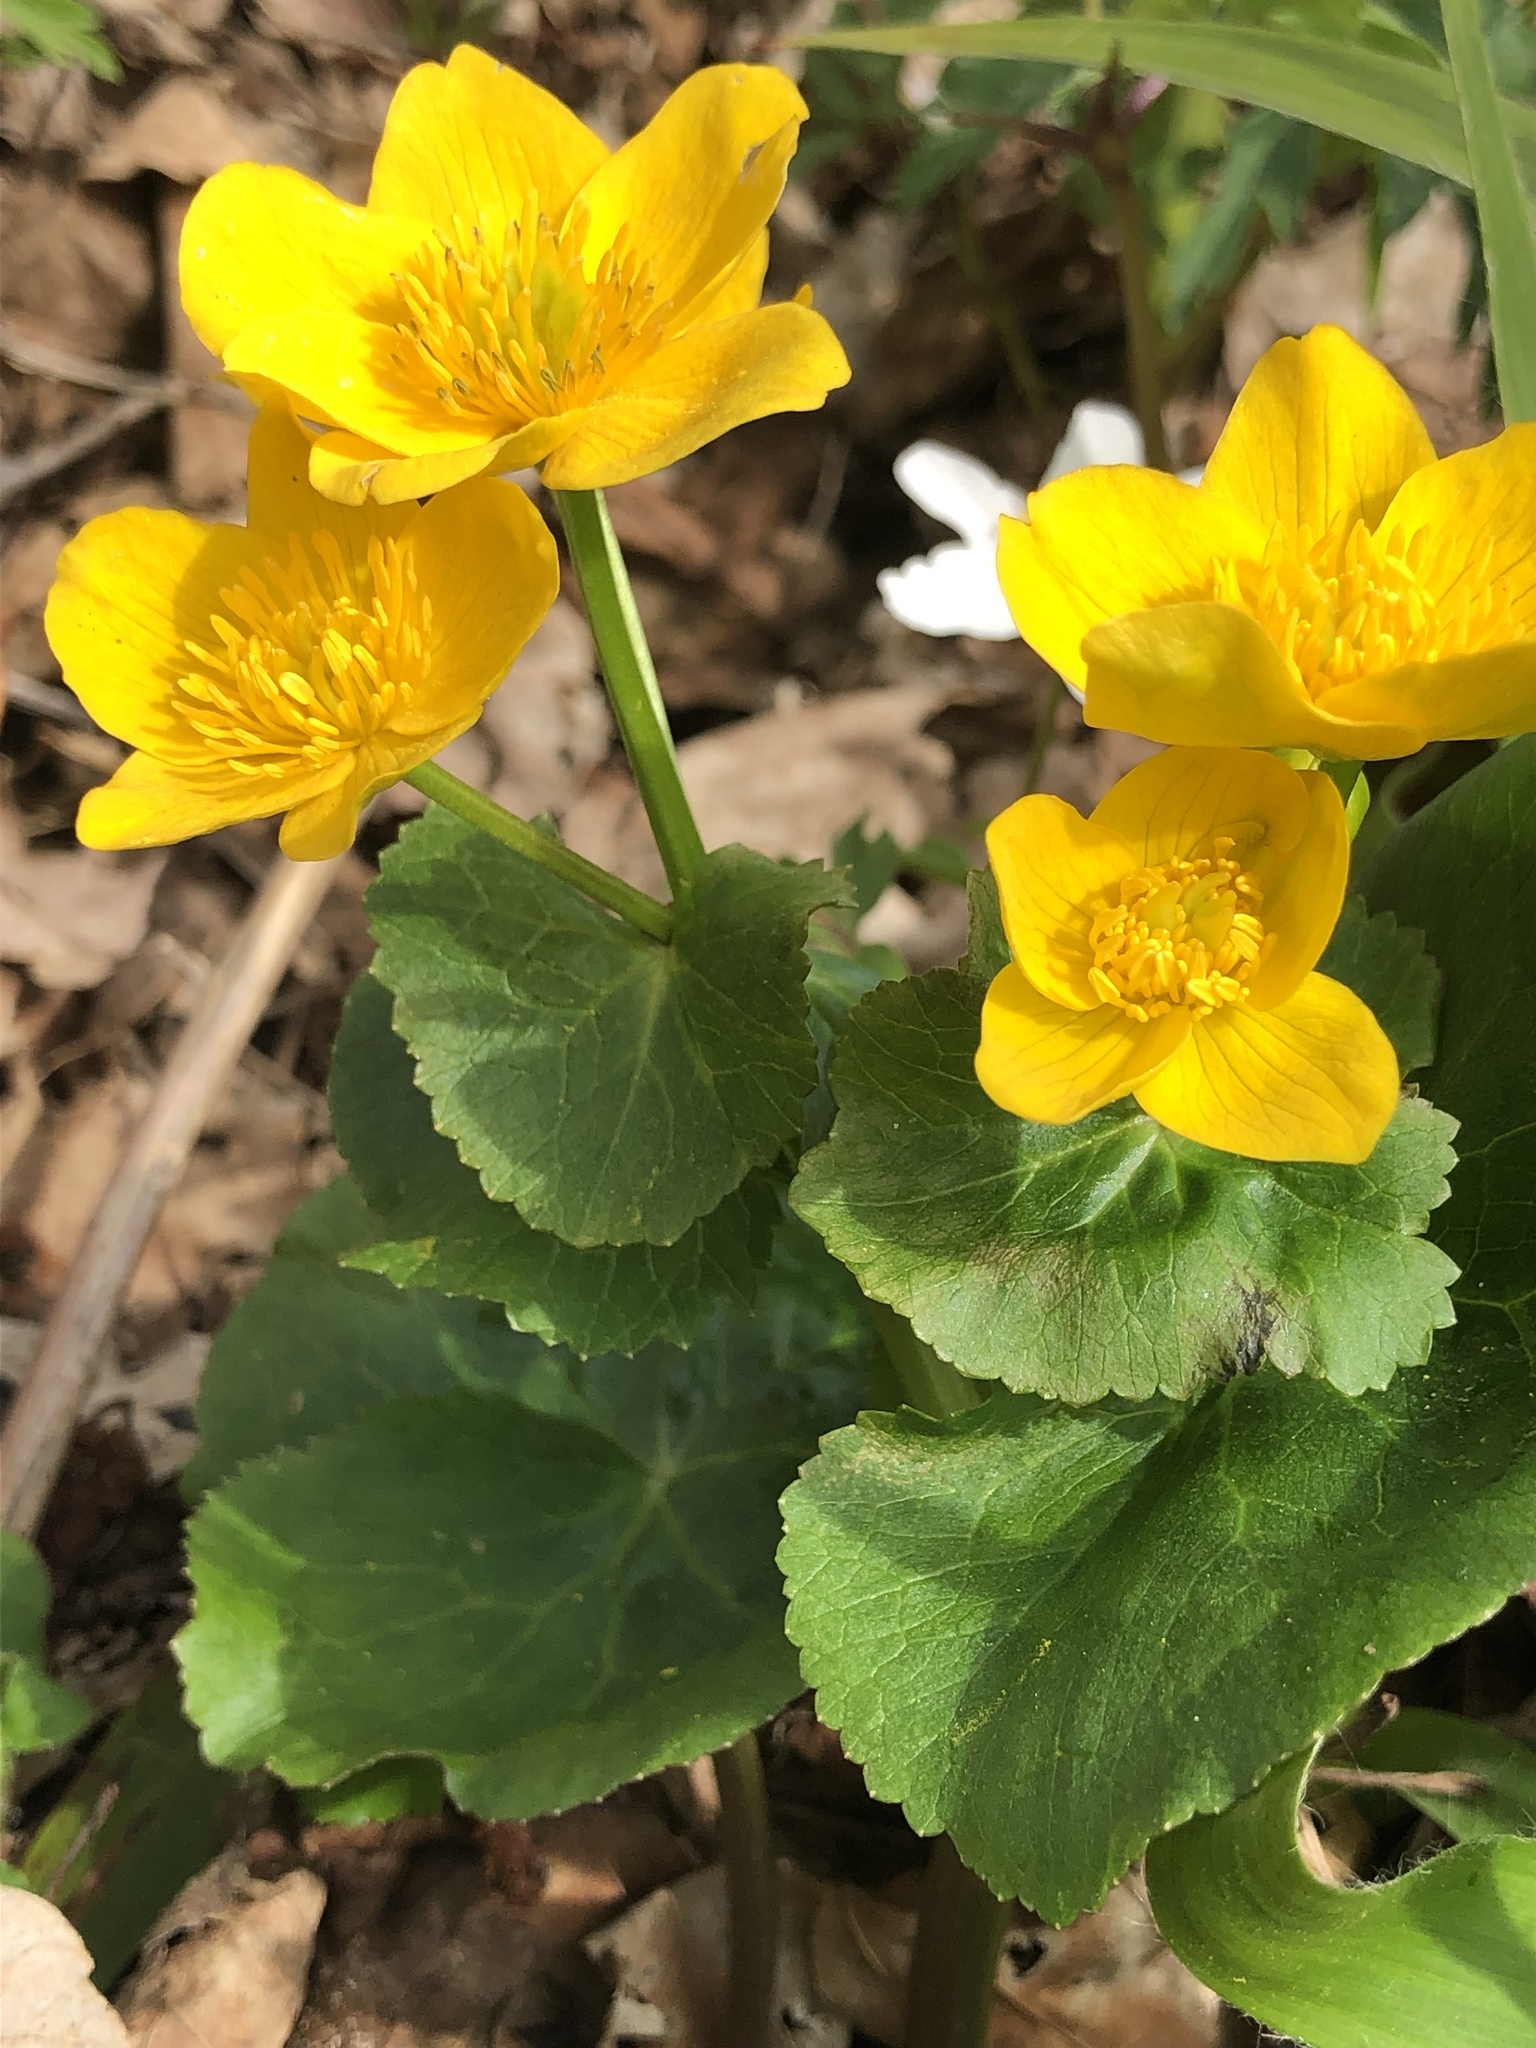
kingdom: Plantae
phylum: Tracheophyta
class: Magnoliopsida
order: Ranunculales
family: Ranunculaceae
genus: Caltha
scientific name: Caltha palustris
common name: Marsh marigold
